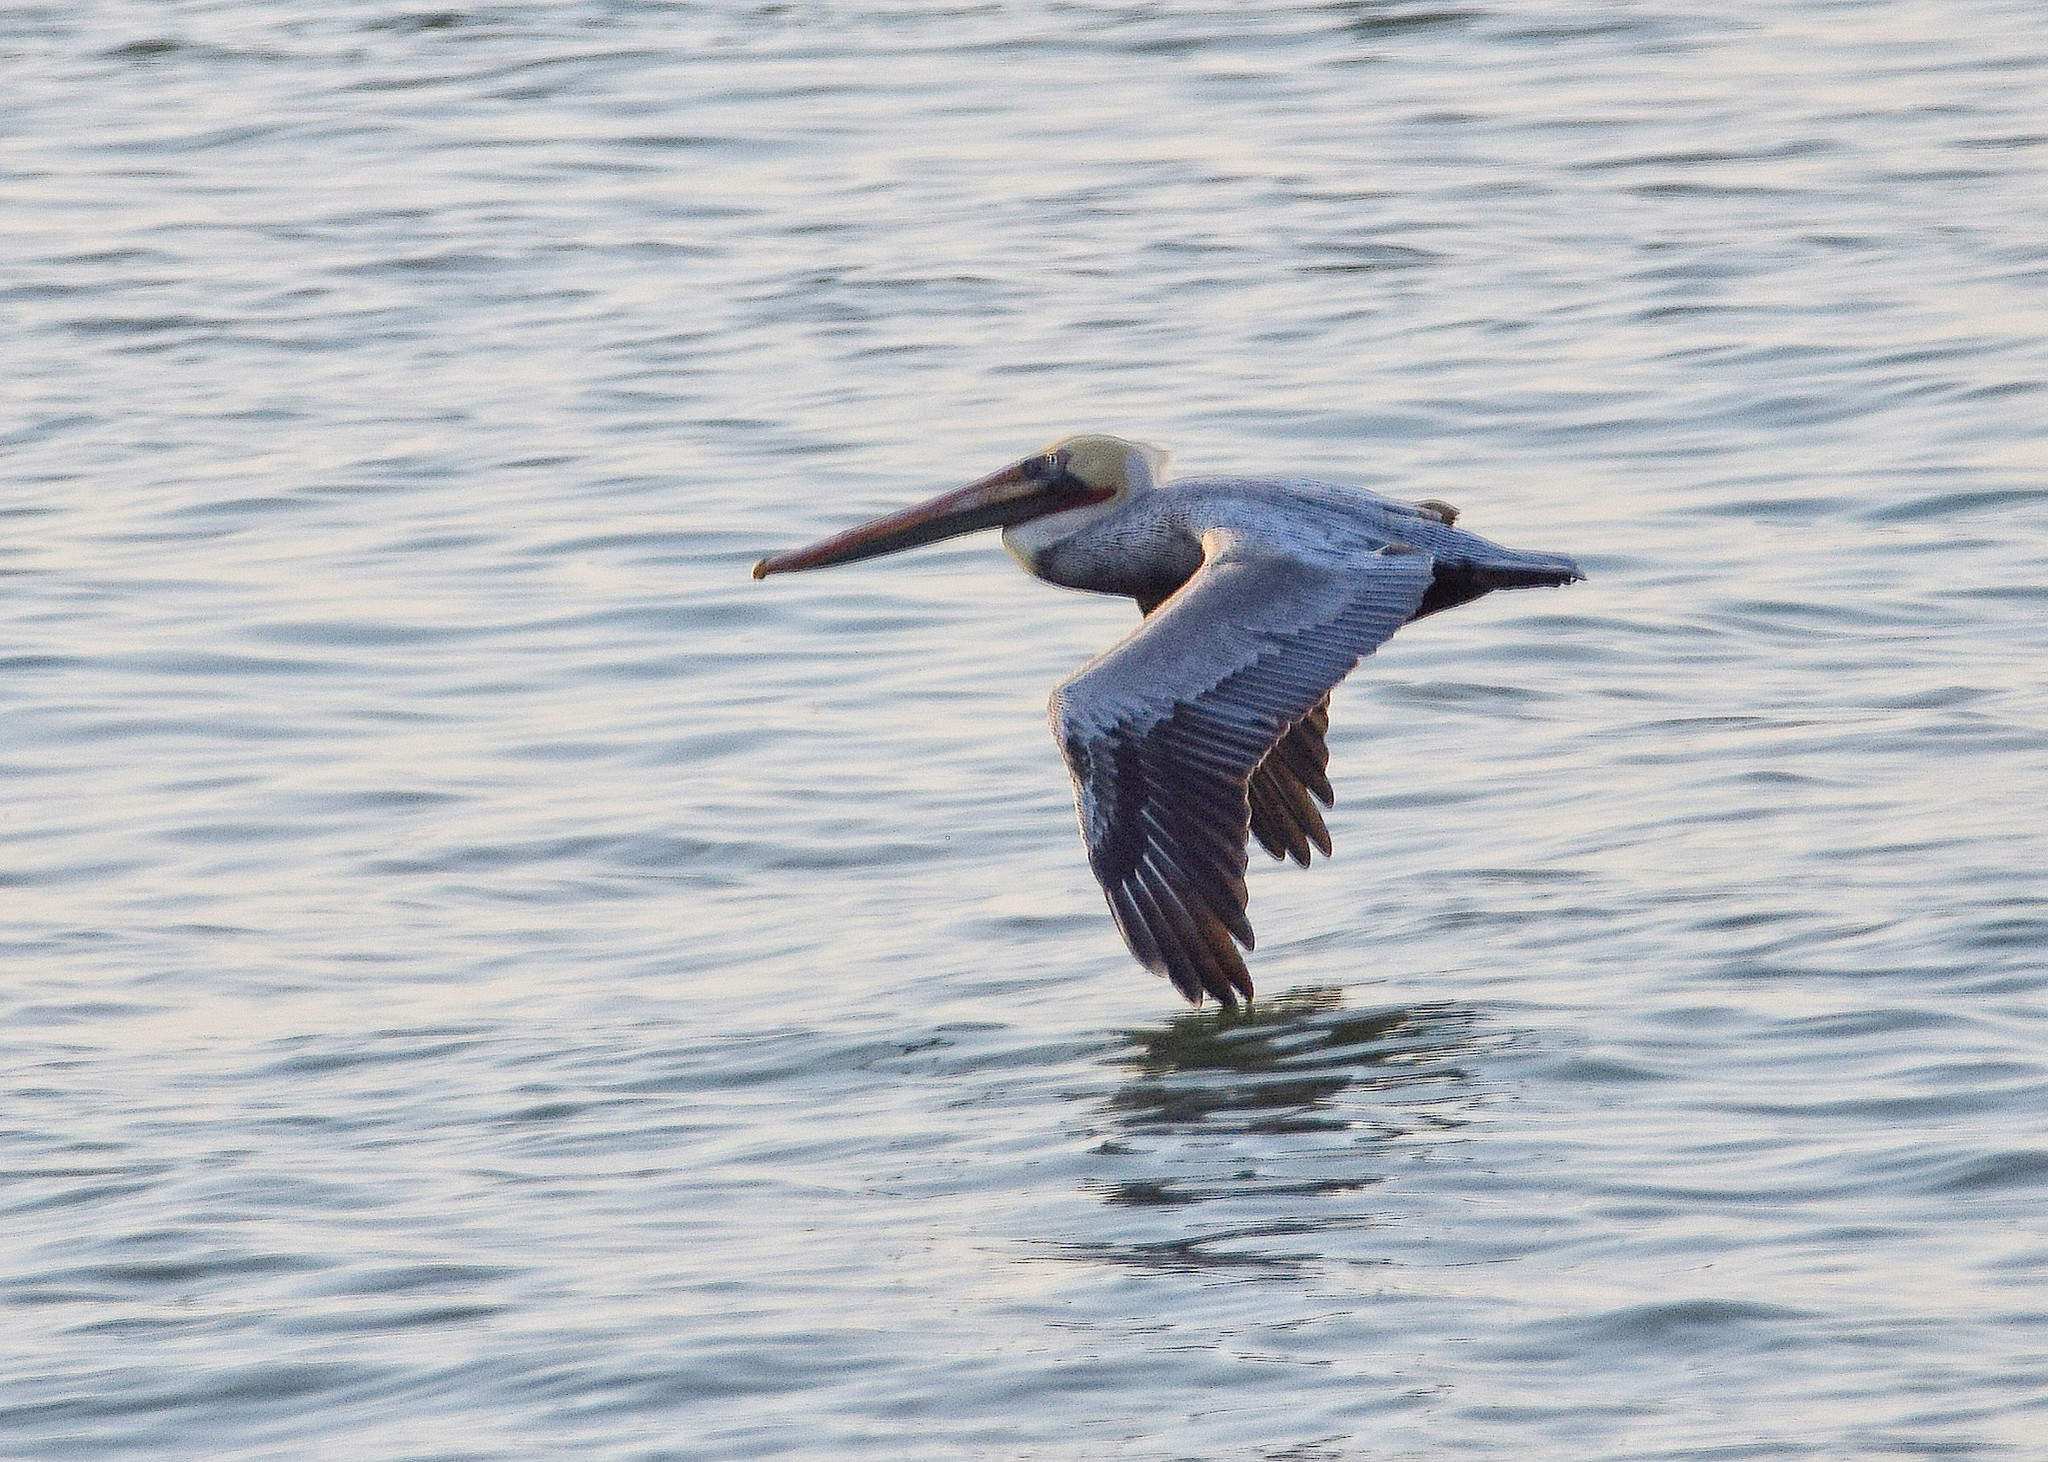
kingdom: Animalia
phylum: Chordata
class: Aves
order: Pelecaniformes
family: Pelecanidae
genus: Pelecanus
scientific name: Pelecanus occidentalis
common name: Brown pelican
